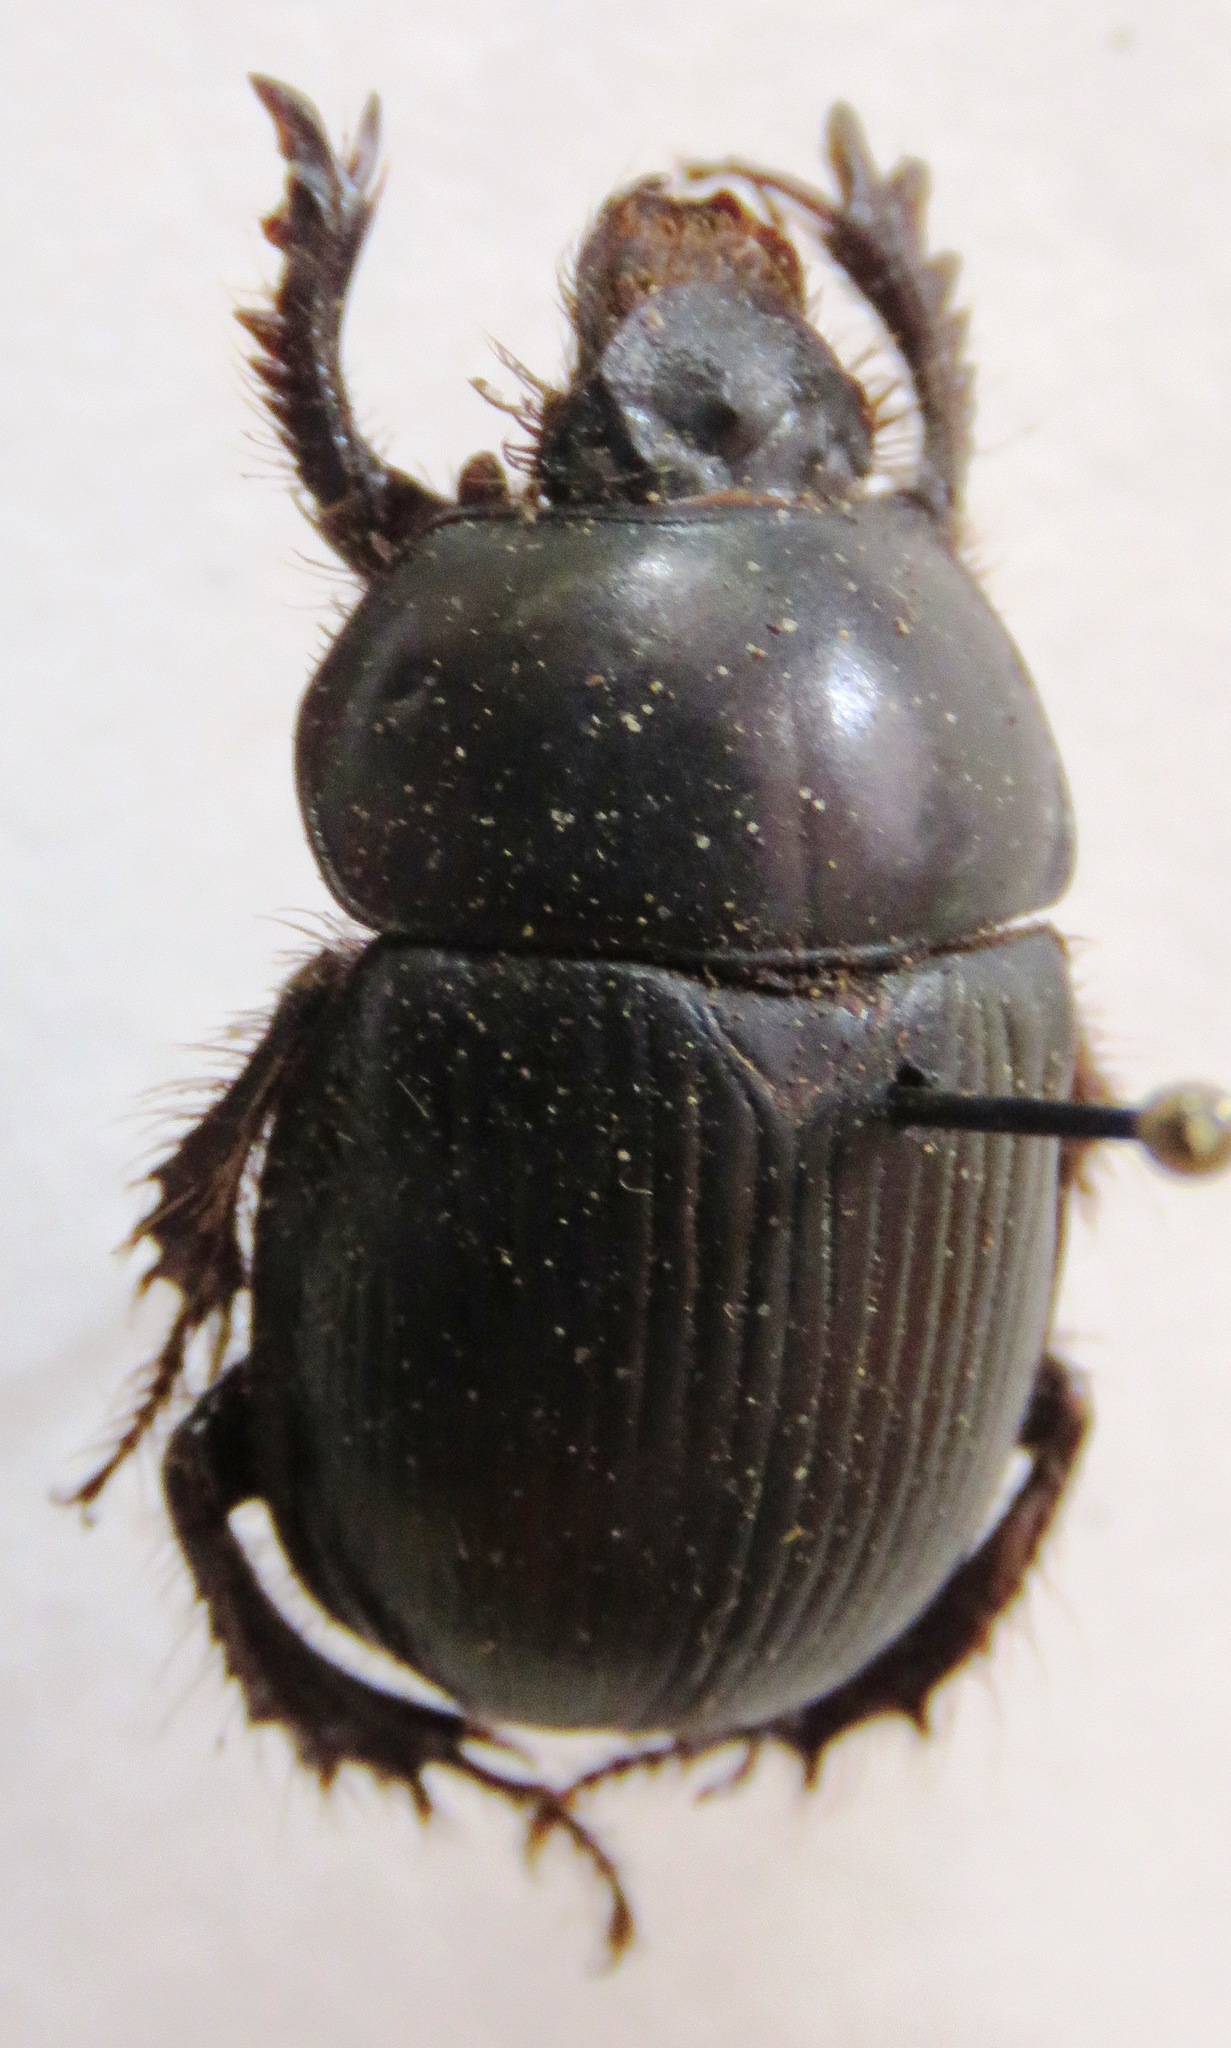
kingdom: Animalia
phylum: Arthropoda
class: Insecta
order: Coleoptera
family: Geotrupidae
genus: Phelotrupes
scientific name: Phelotrupes laevistriatus
